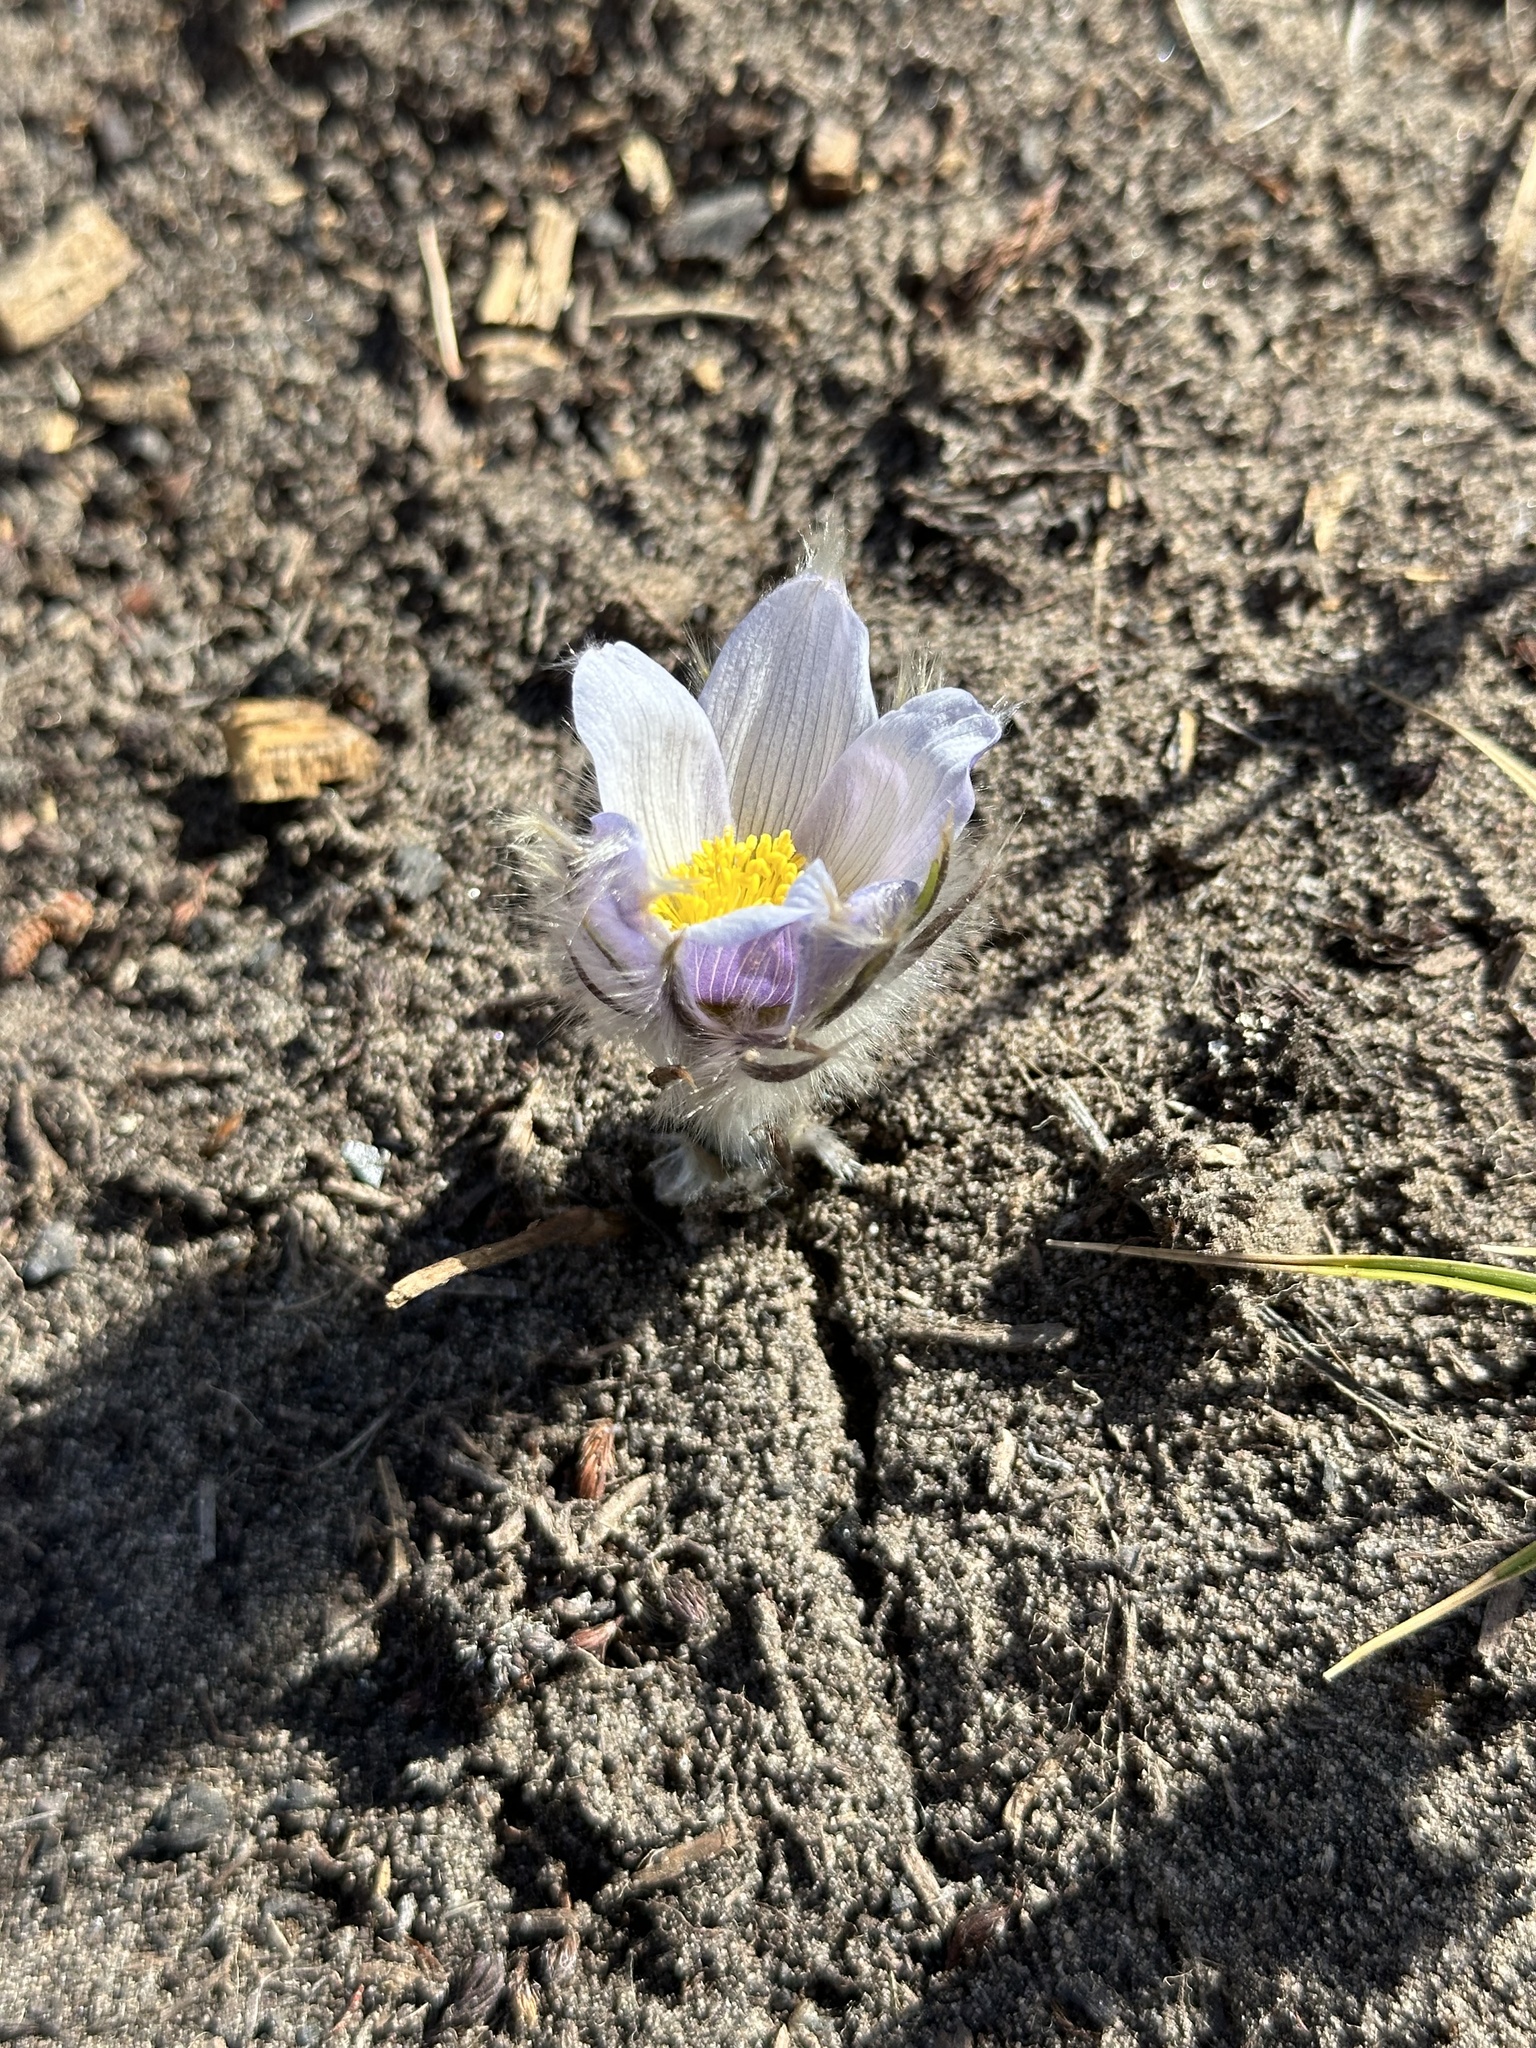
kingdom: Plantae
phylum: Tracheophyta
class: Magnoliopsida
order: Ranunculales
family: Ranunculaceae
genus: Pulsatilla
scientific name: Pulsatilla nuttalliana
